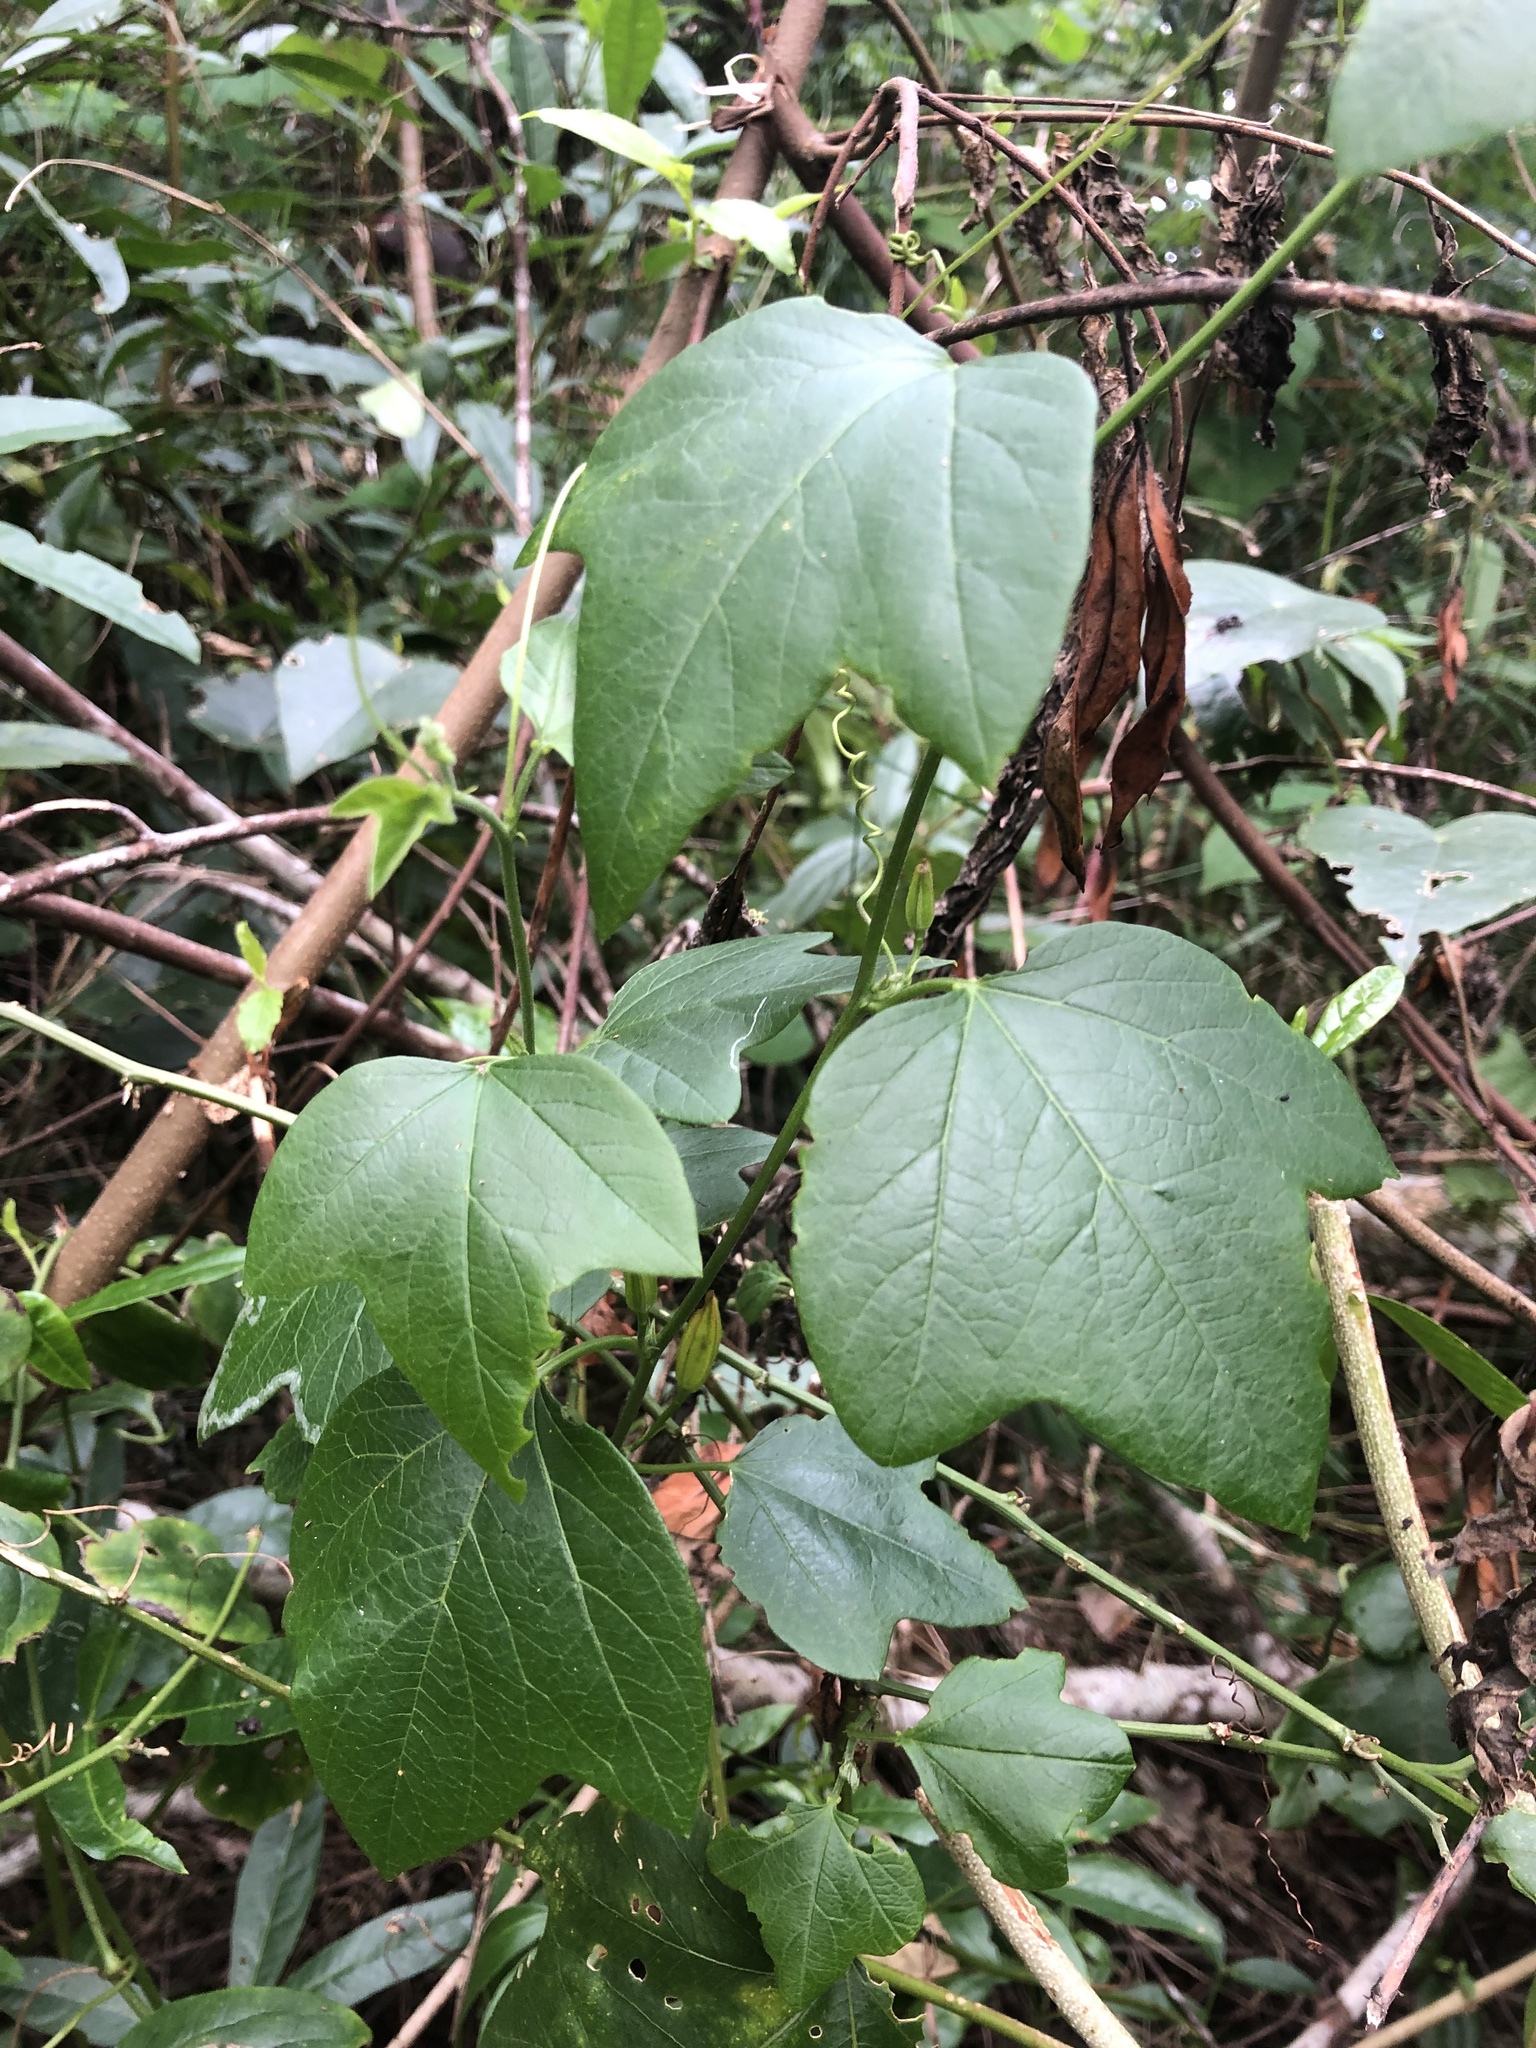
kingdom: Plantae
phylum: Tracheophyta
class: Magnoliopsida
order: Malpighiales
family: Passifloraceae
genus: Passiflora
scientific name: Passiflora herbertiana
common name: Yellow passionflower
